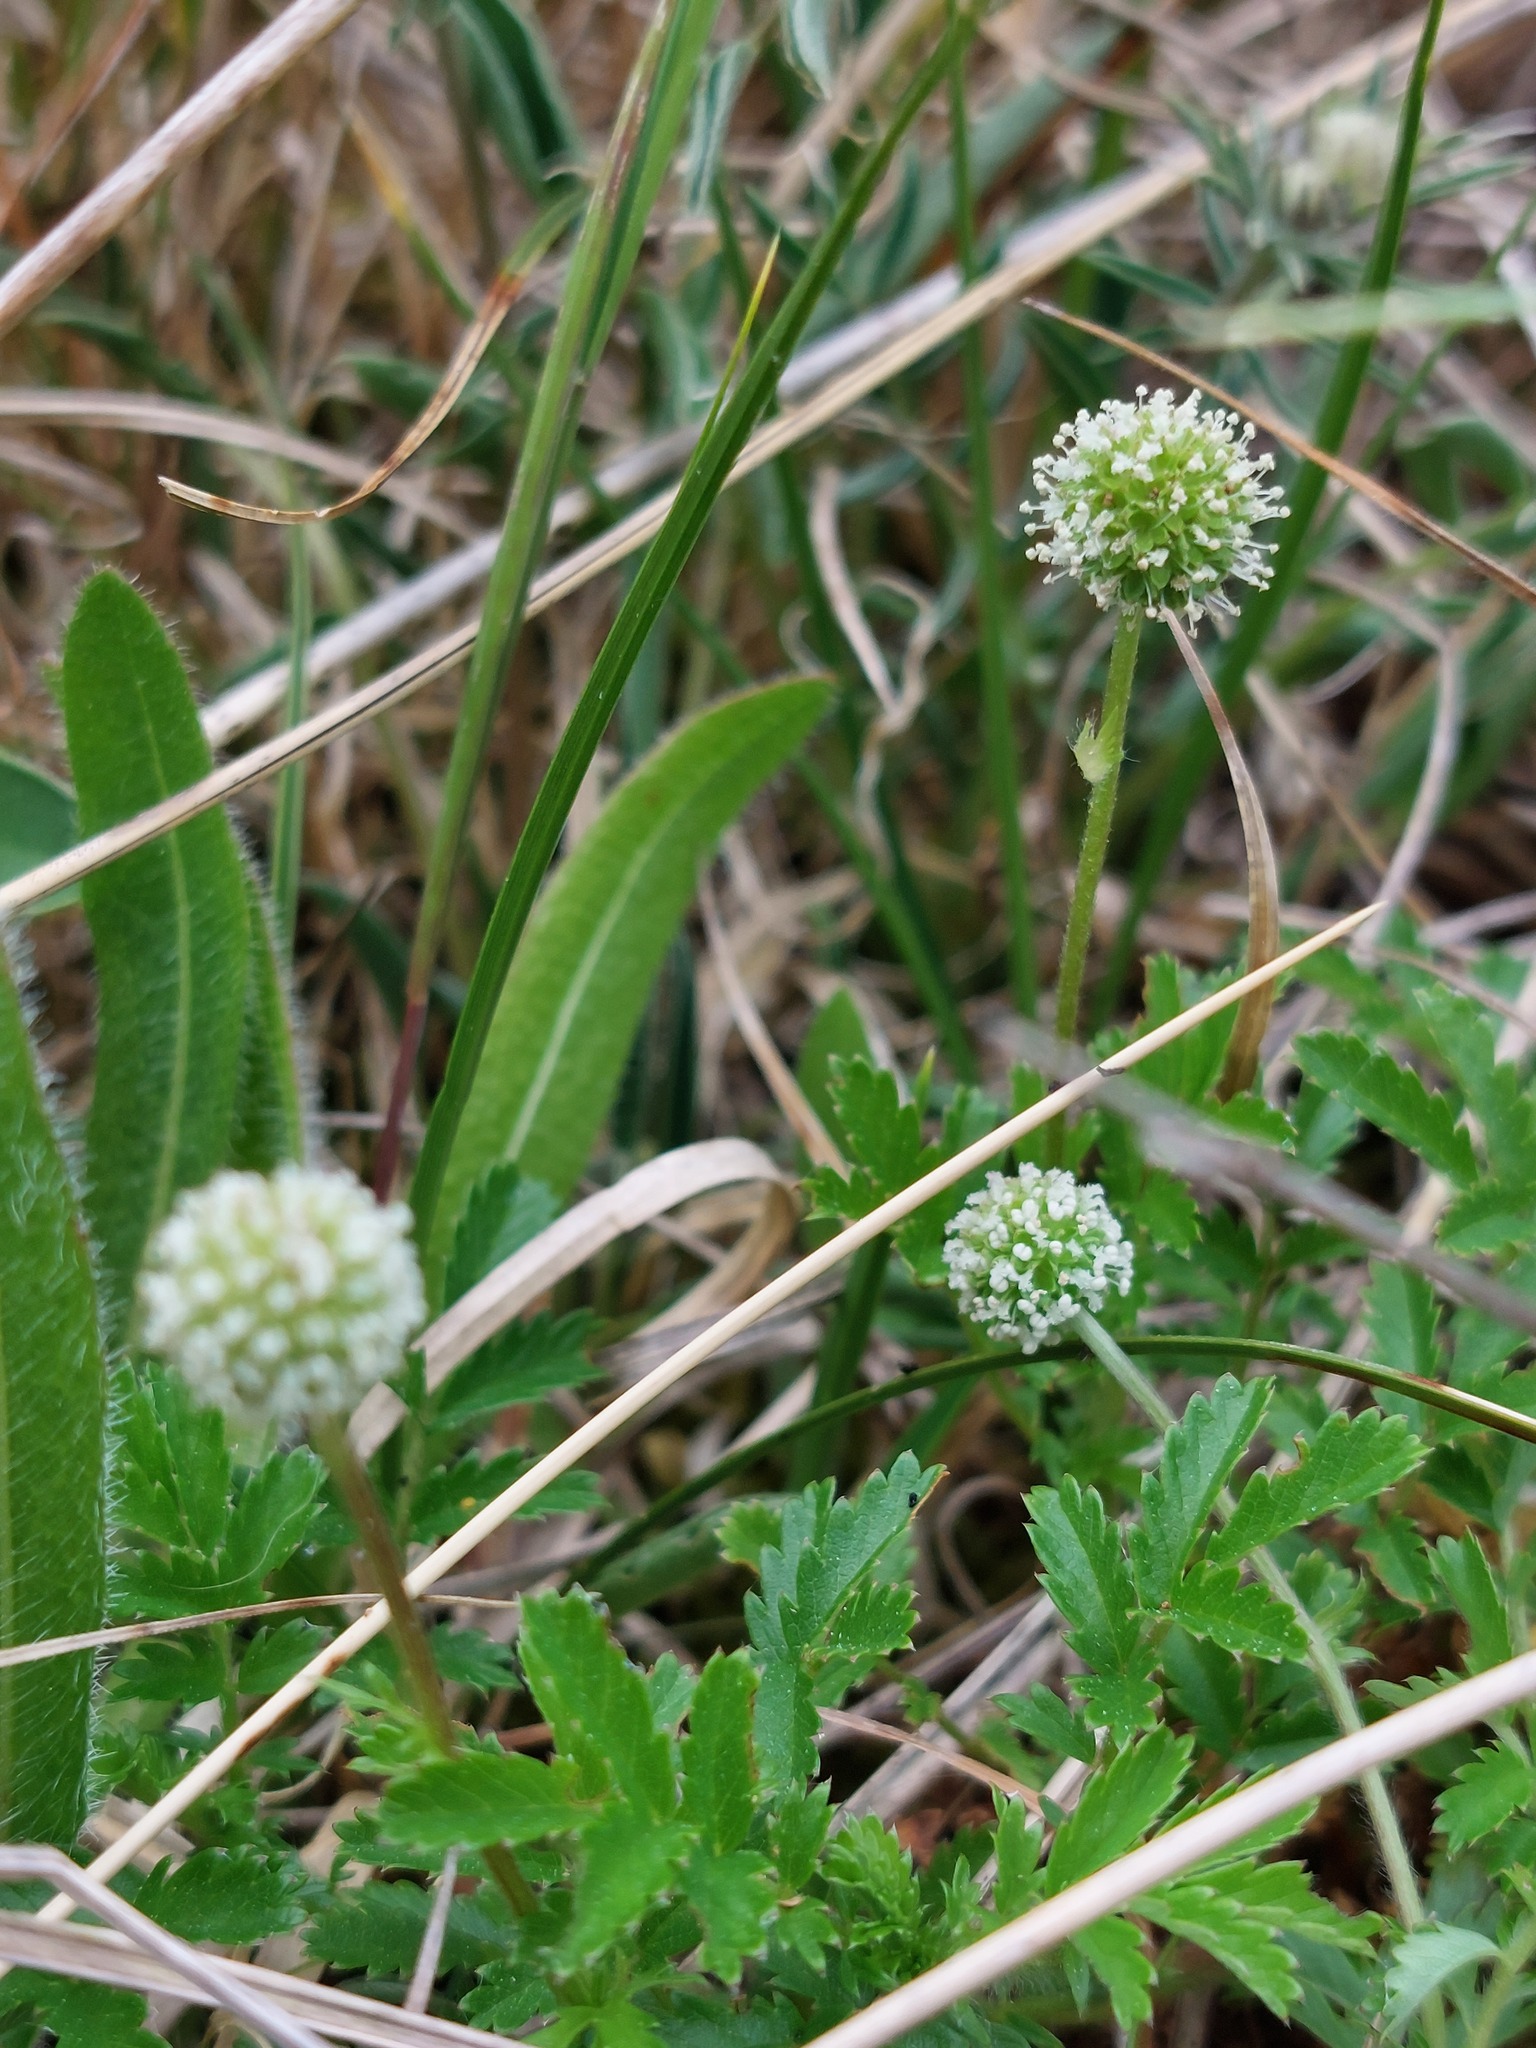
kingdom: Plantae
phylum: Tracheophyta
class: Magnoliopsida
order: Rosales
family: Rosaceae
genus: Acaena
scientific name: Acaena novae-zelandiae
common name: Pirri-pirri-bur
